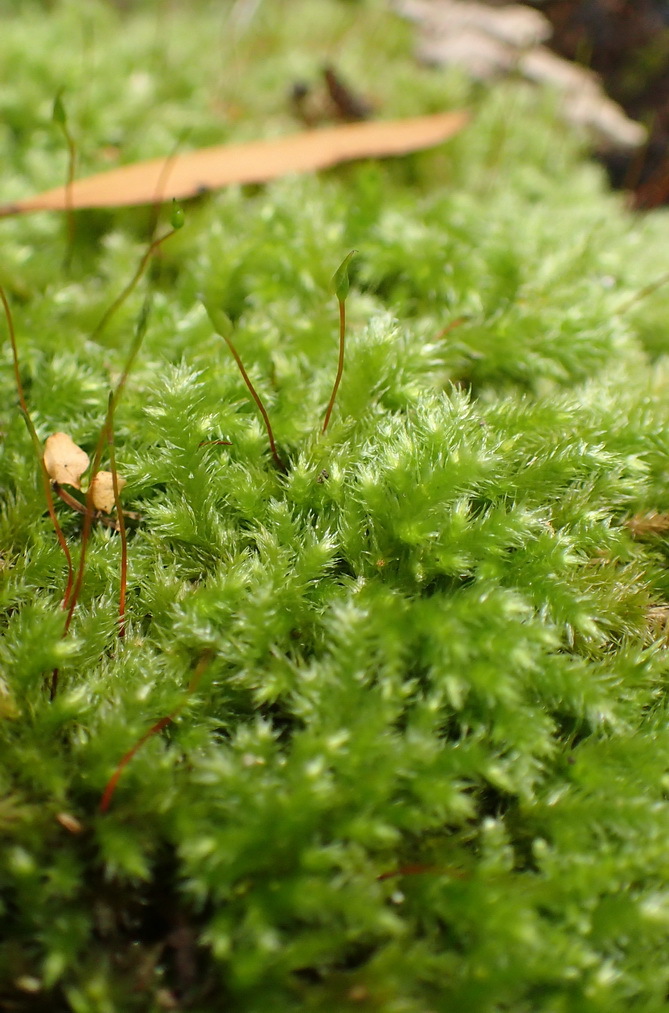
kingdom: Plantae
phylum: Bryophyta
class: Bryopsida
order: Hypnales
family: Brachytheciaceae
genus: Palamocladium
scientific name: Palamocladium leskeoides
